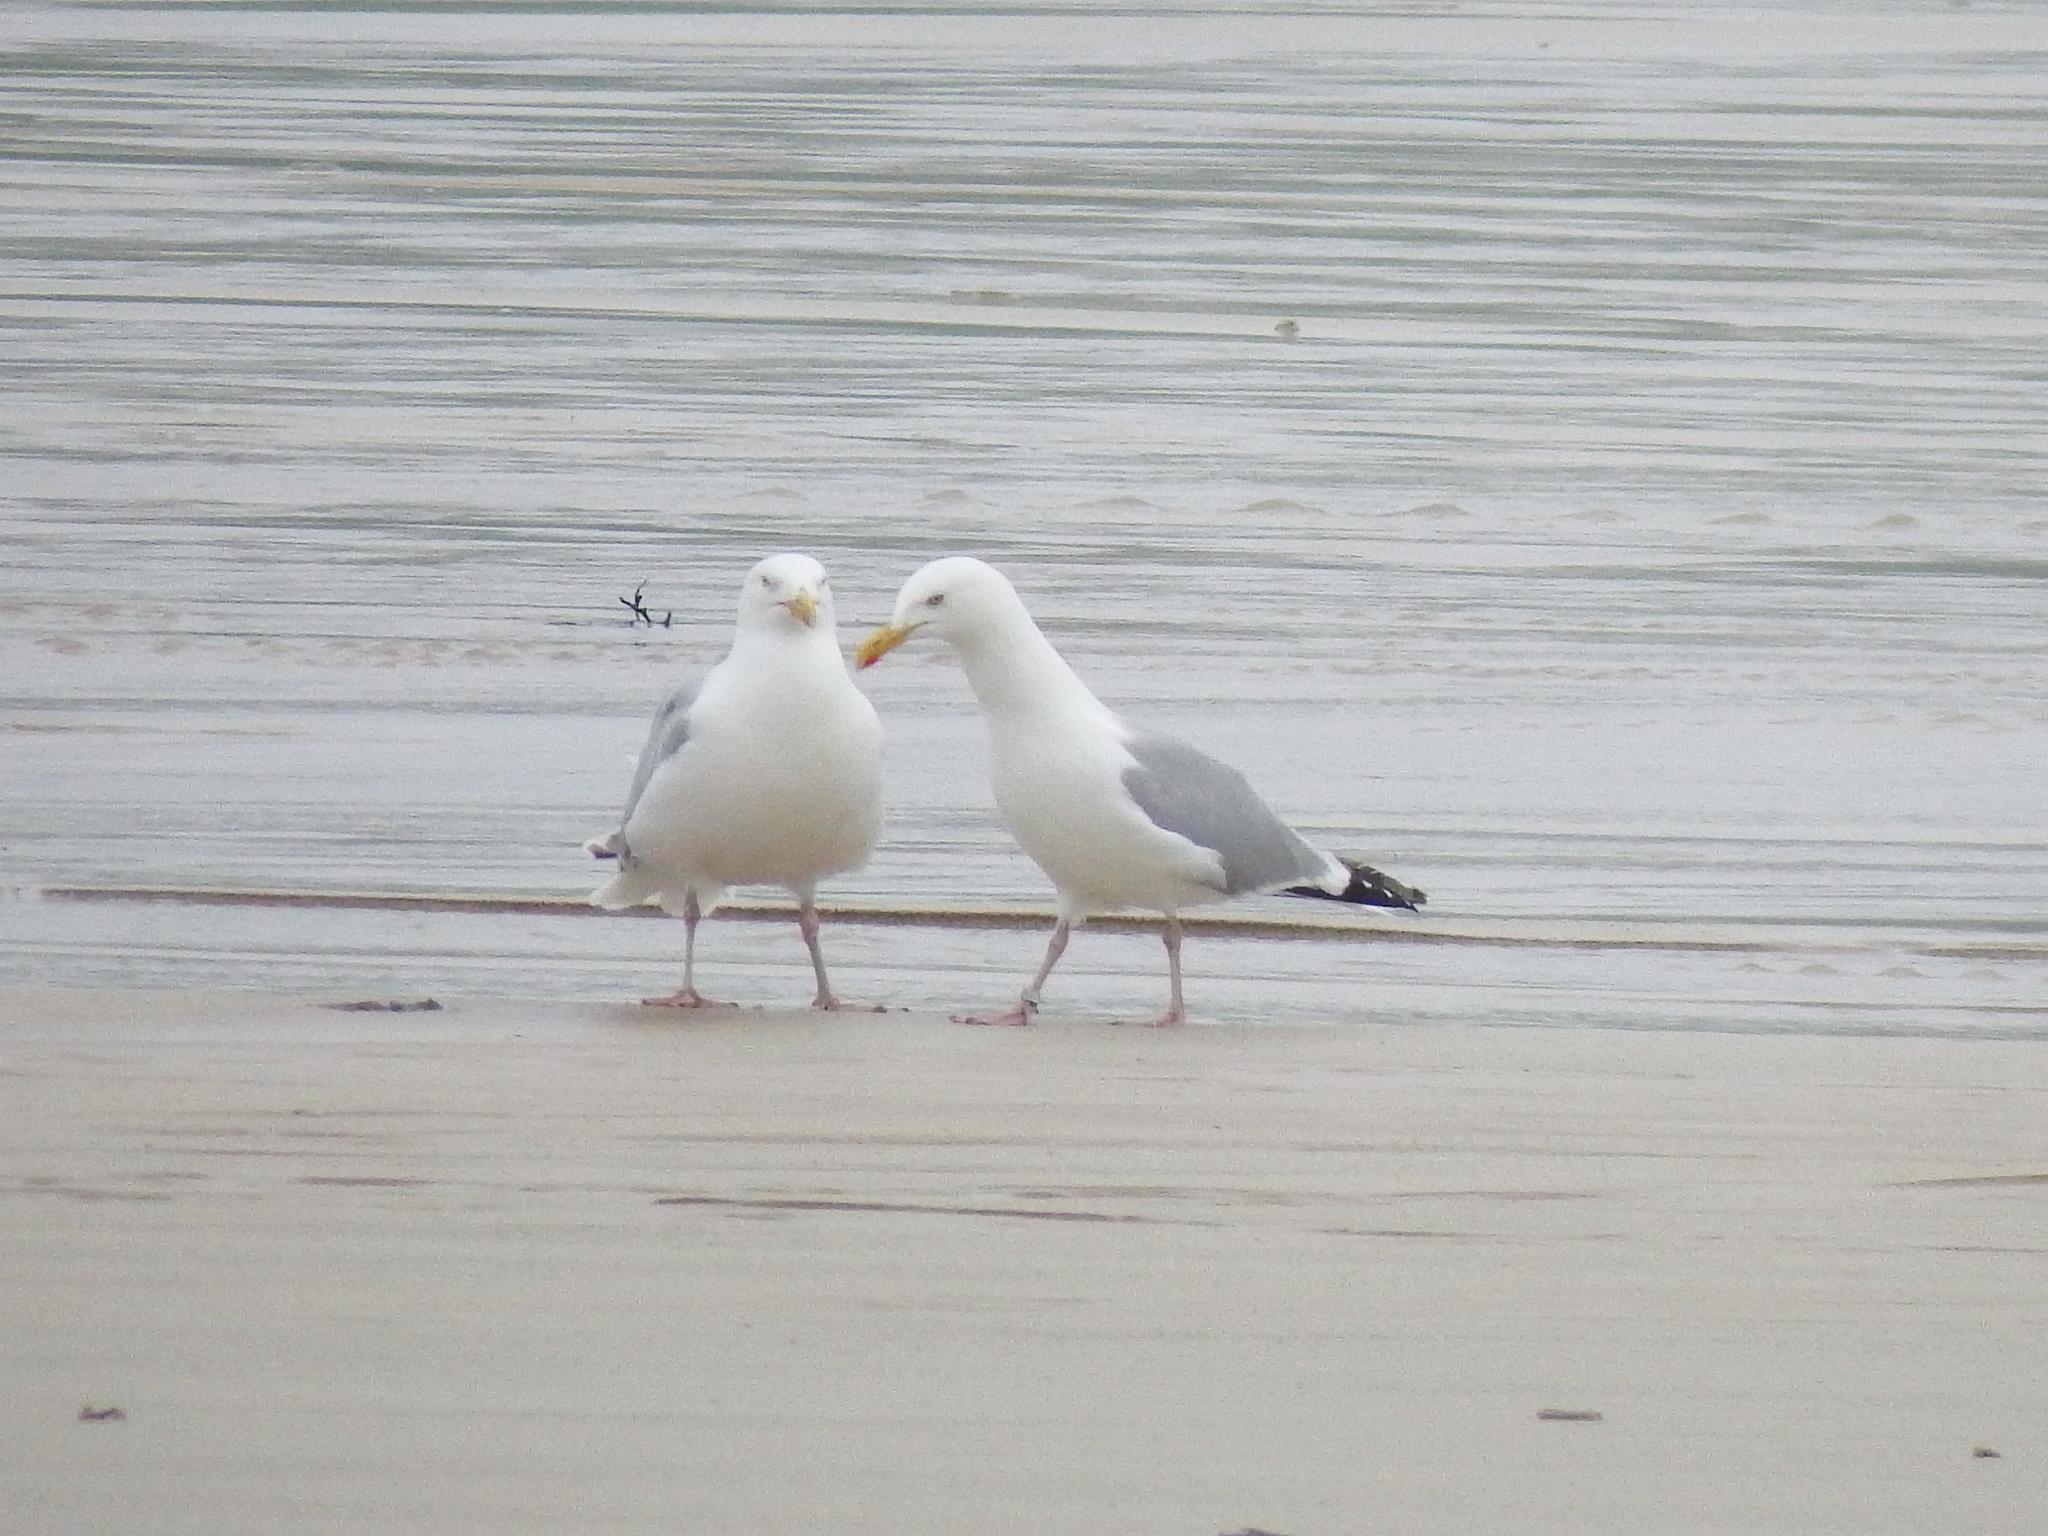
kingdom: Animalia
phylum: Chordata
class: Aves
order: Charadriiformes
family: Laridae
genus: Larus
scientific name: Larus argentatus
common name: Herring gull
